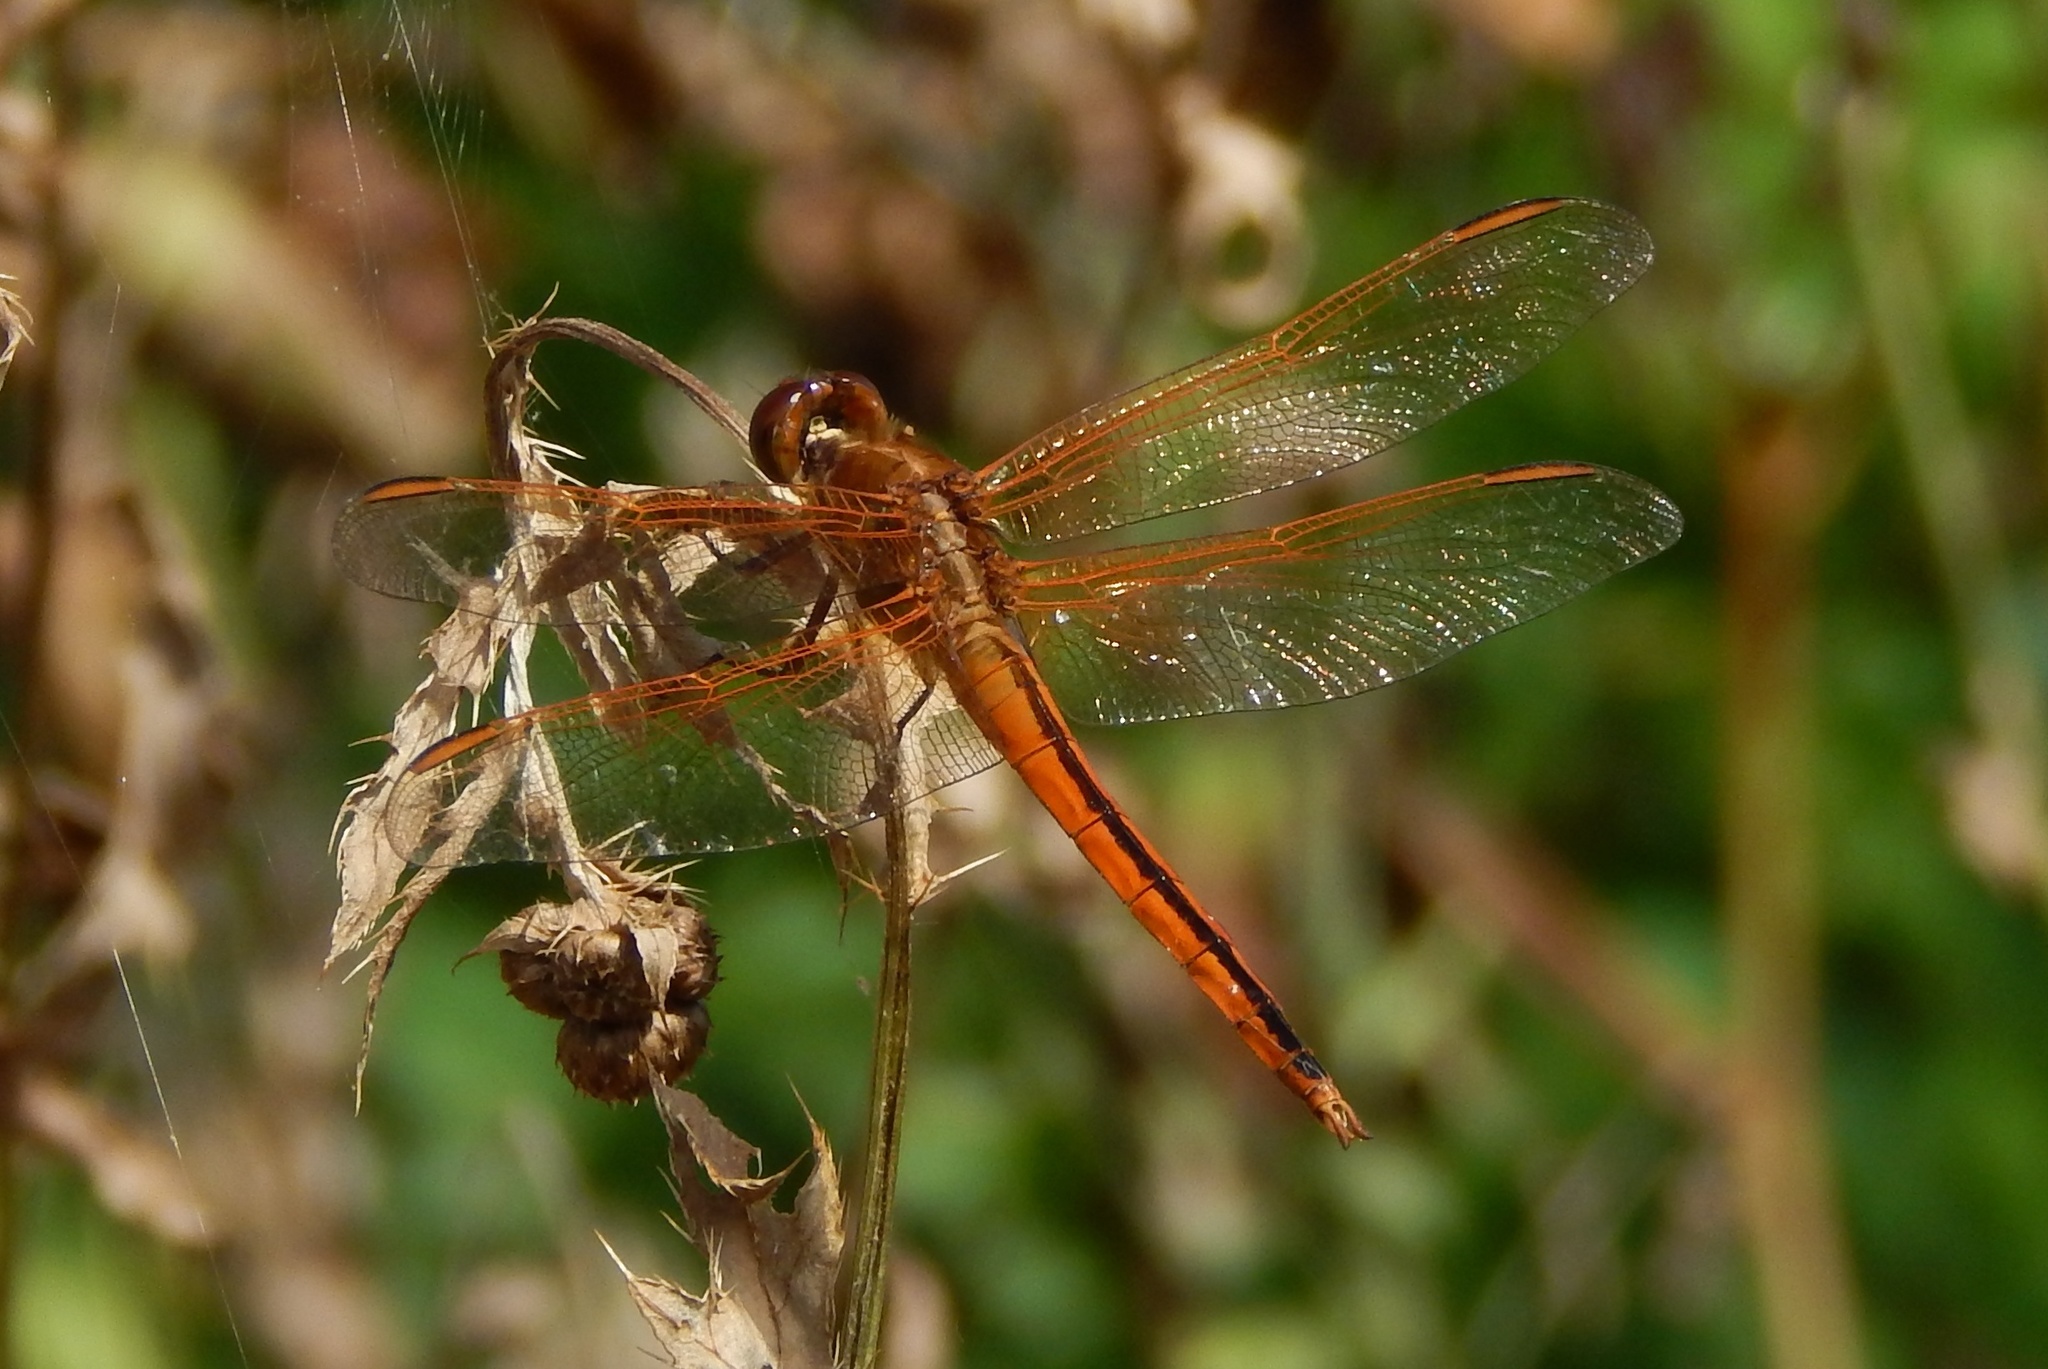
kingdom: Animalia
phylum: Arthropoda
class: Insecta
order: Odonata
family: Libellulidae
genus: Libellula
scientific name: Libellula needhami
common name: Needham's skimmer
